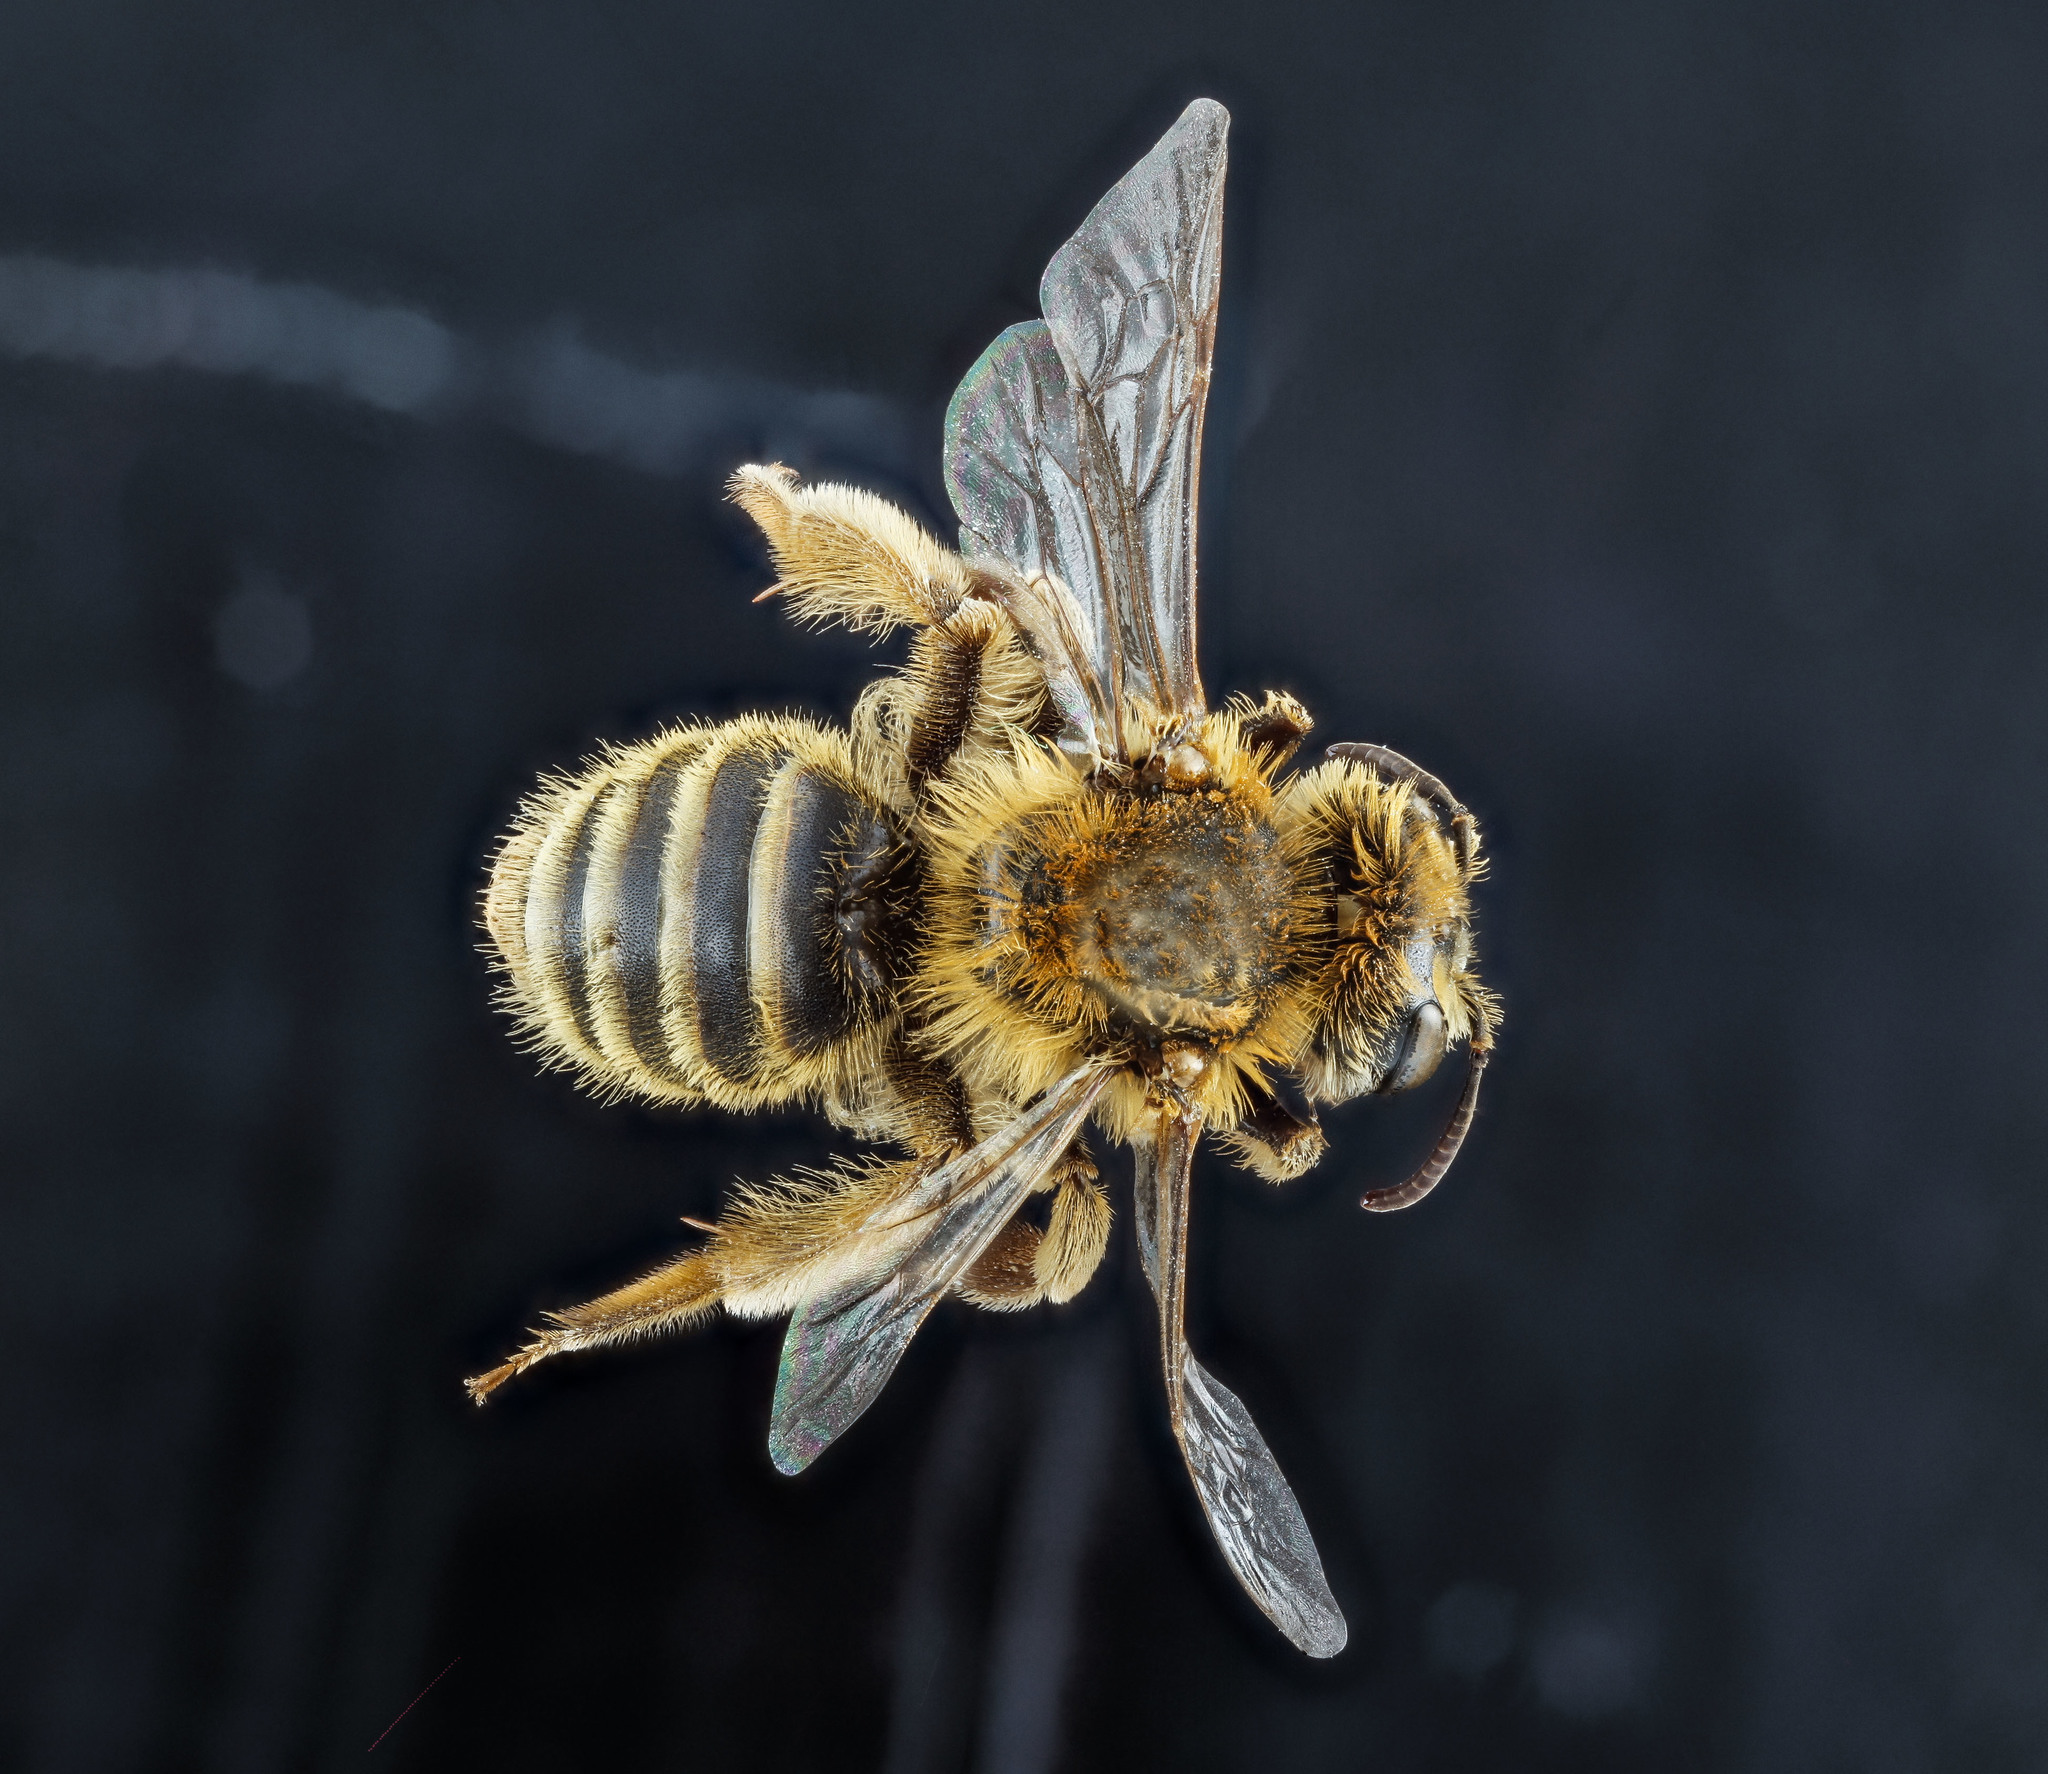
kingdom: Animalia
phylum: Arthropoda
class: Insecta
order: Hymenoptera
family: Andrenidae
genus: Andrena
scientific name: Andrena accepta
